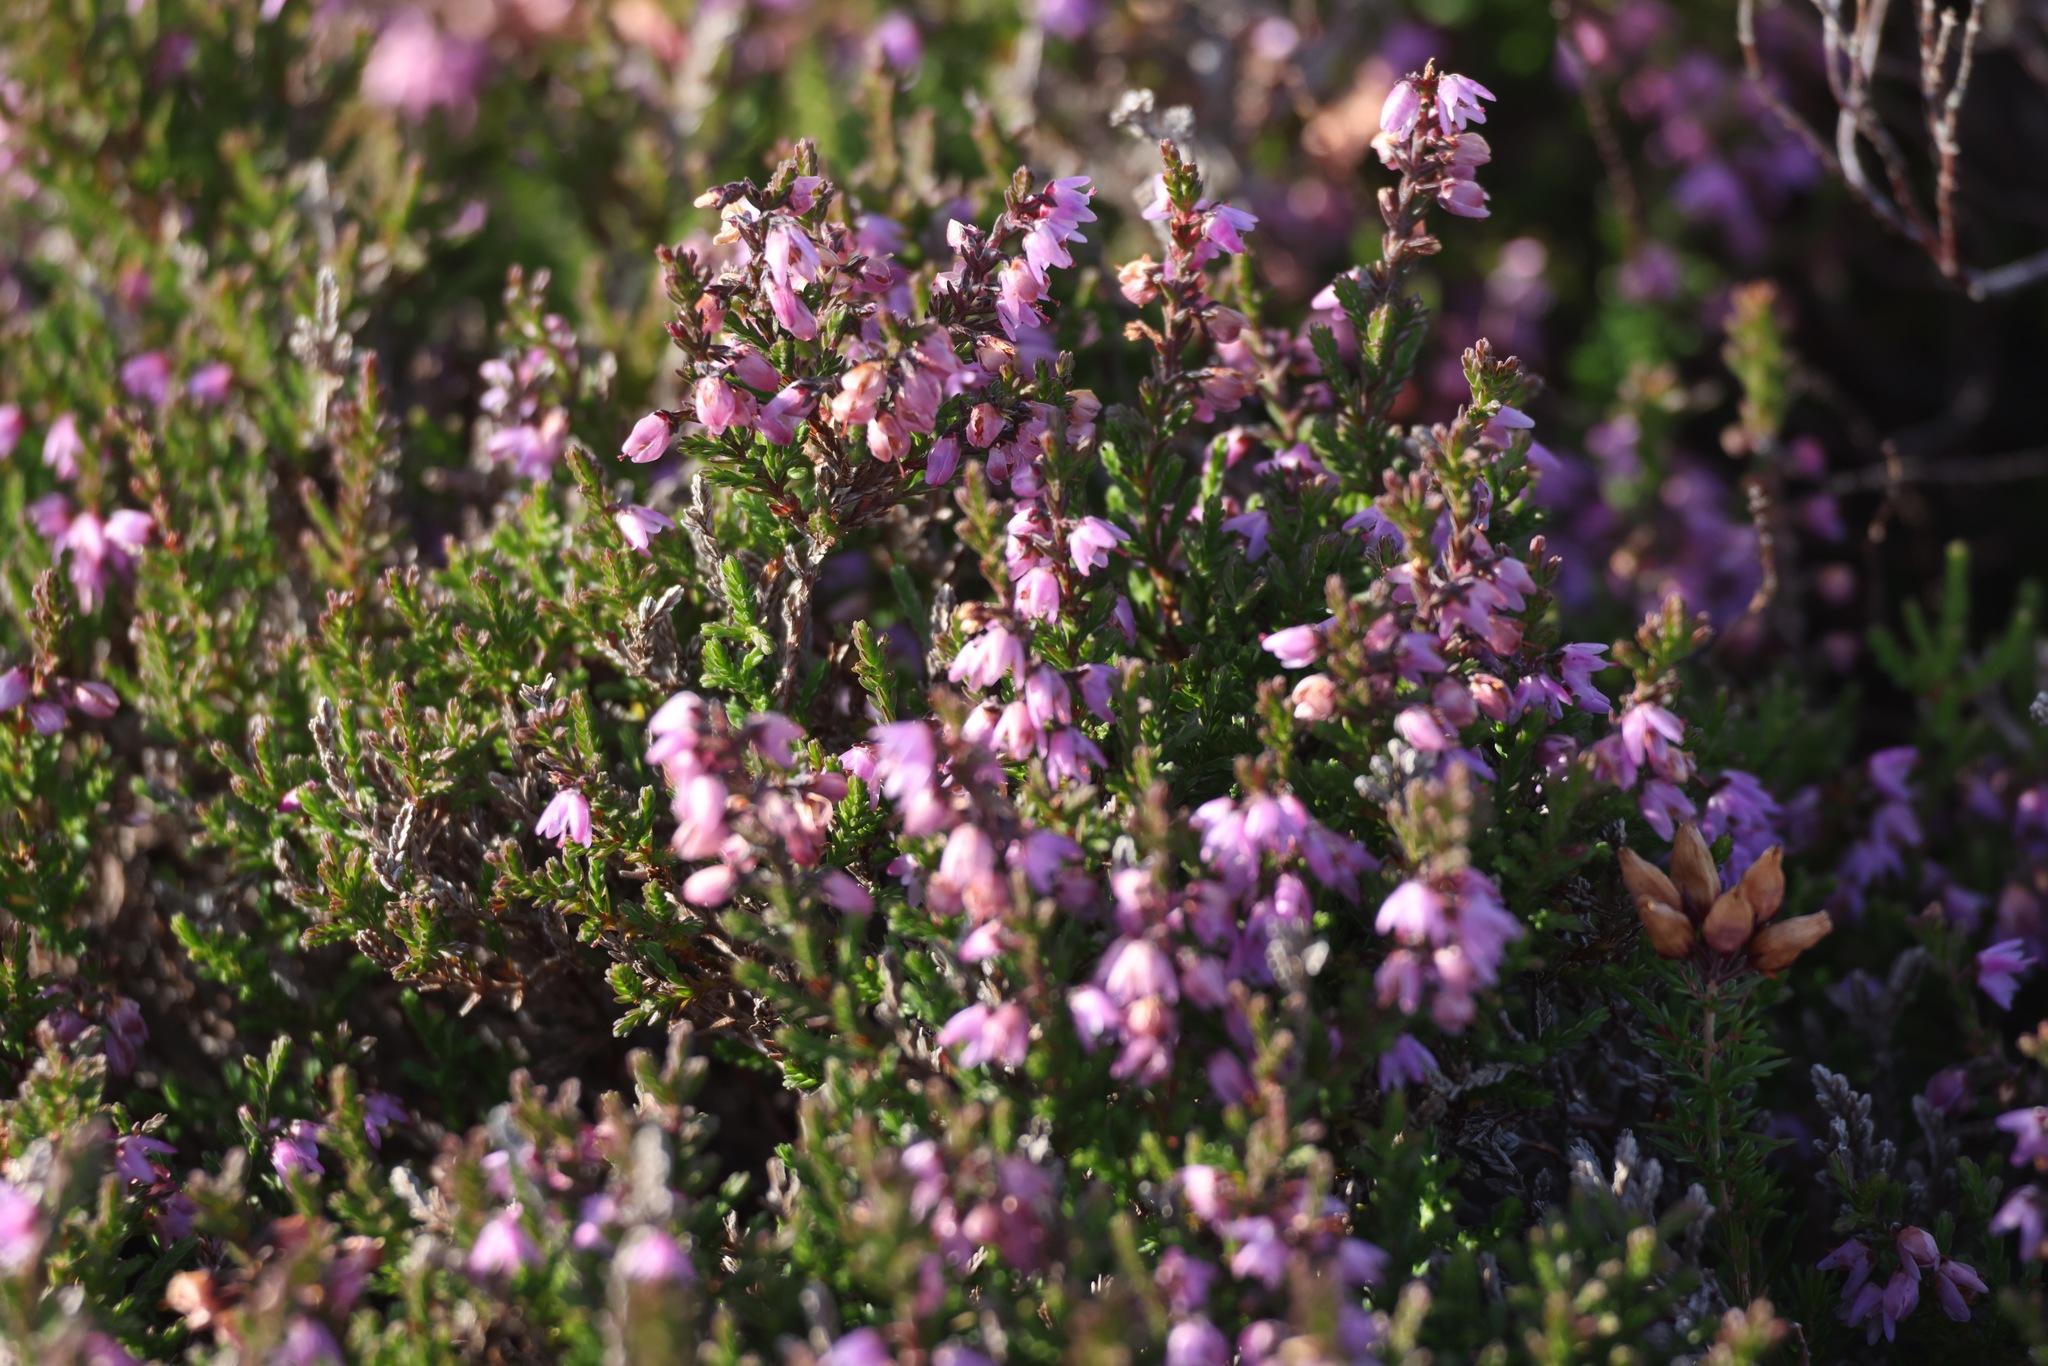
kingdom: Plantae
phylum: Tracheophyta
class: Magnoliopsida
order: Ericales
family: Ericaceae
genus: Calluna
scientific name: Calluna vulgaris
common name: Heather
